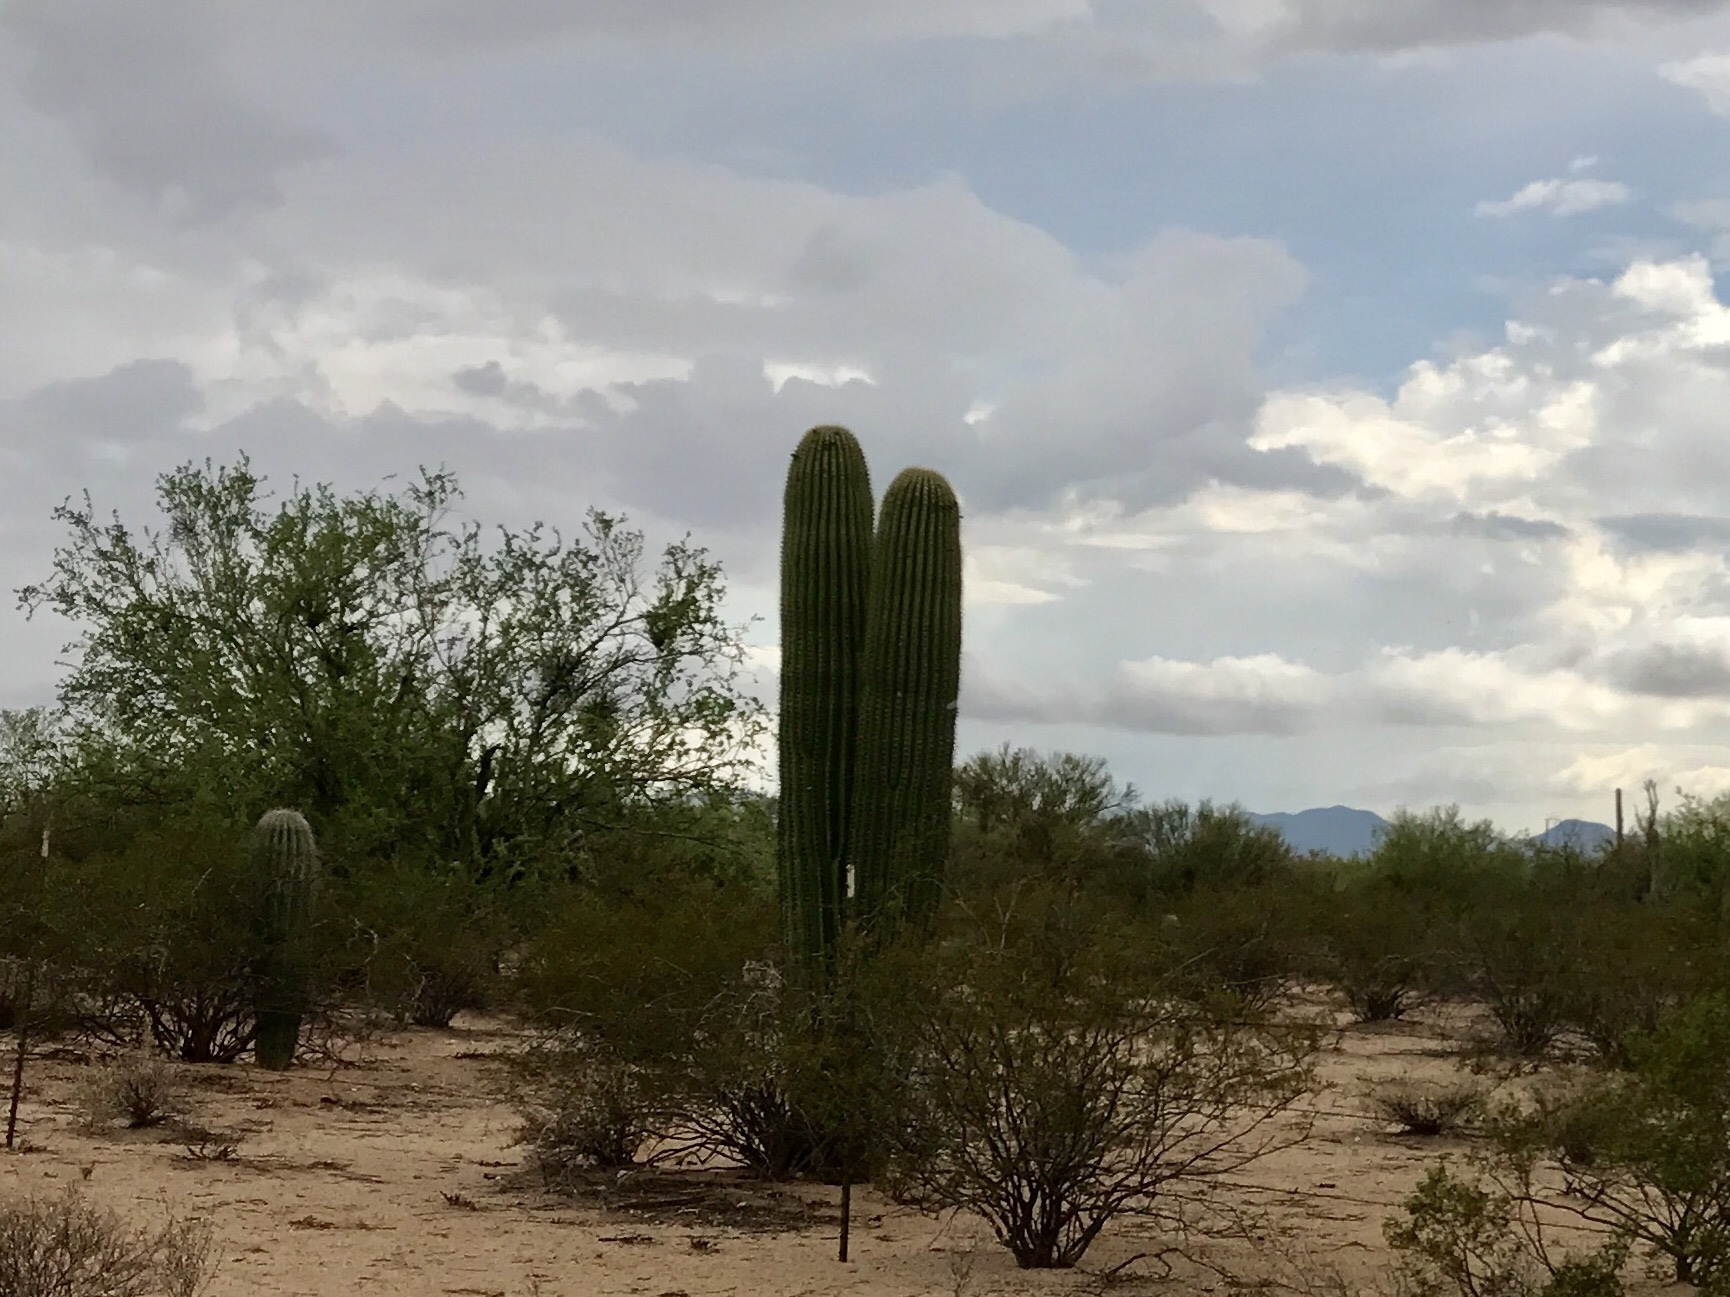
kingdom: Plantae
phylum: Tracheophyta
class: Magnoliopsida
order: Caryophyllales
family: Cactaceae
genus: Carnegiea
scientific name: Carnegiea gigantea
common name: Saguaro
